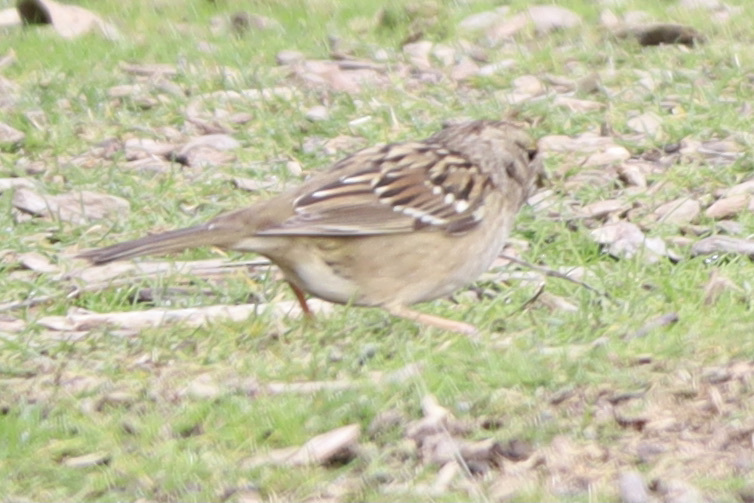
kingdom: Animalia
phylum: Chordata
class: Aves
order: Passeriformes
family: Passerellidae
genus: Zonotrichia
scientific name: Zonotrichia atricapilla
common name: Golden-crowned sparrow
